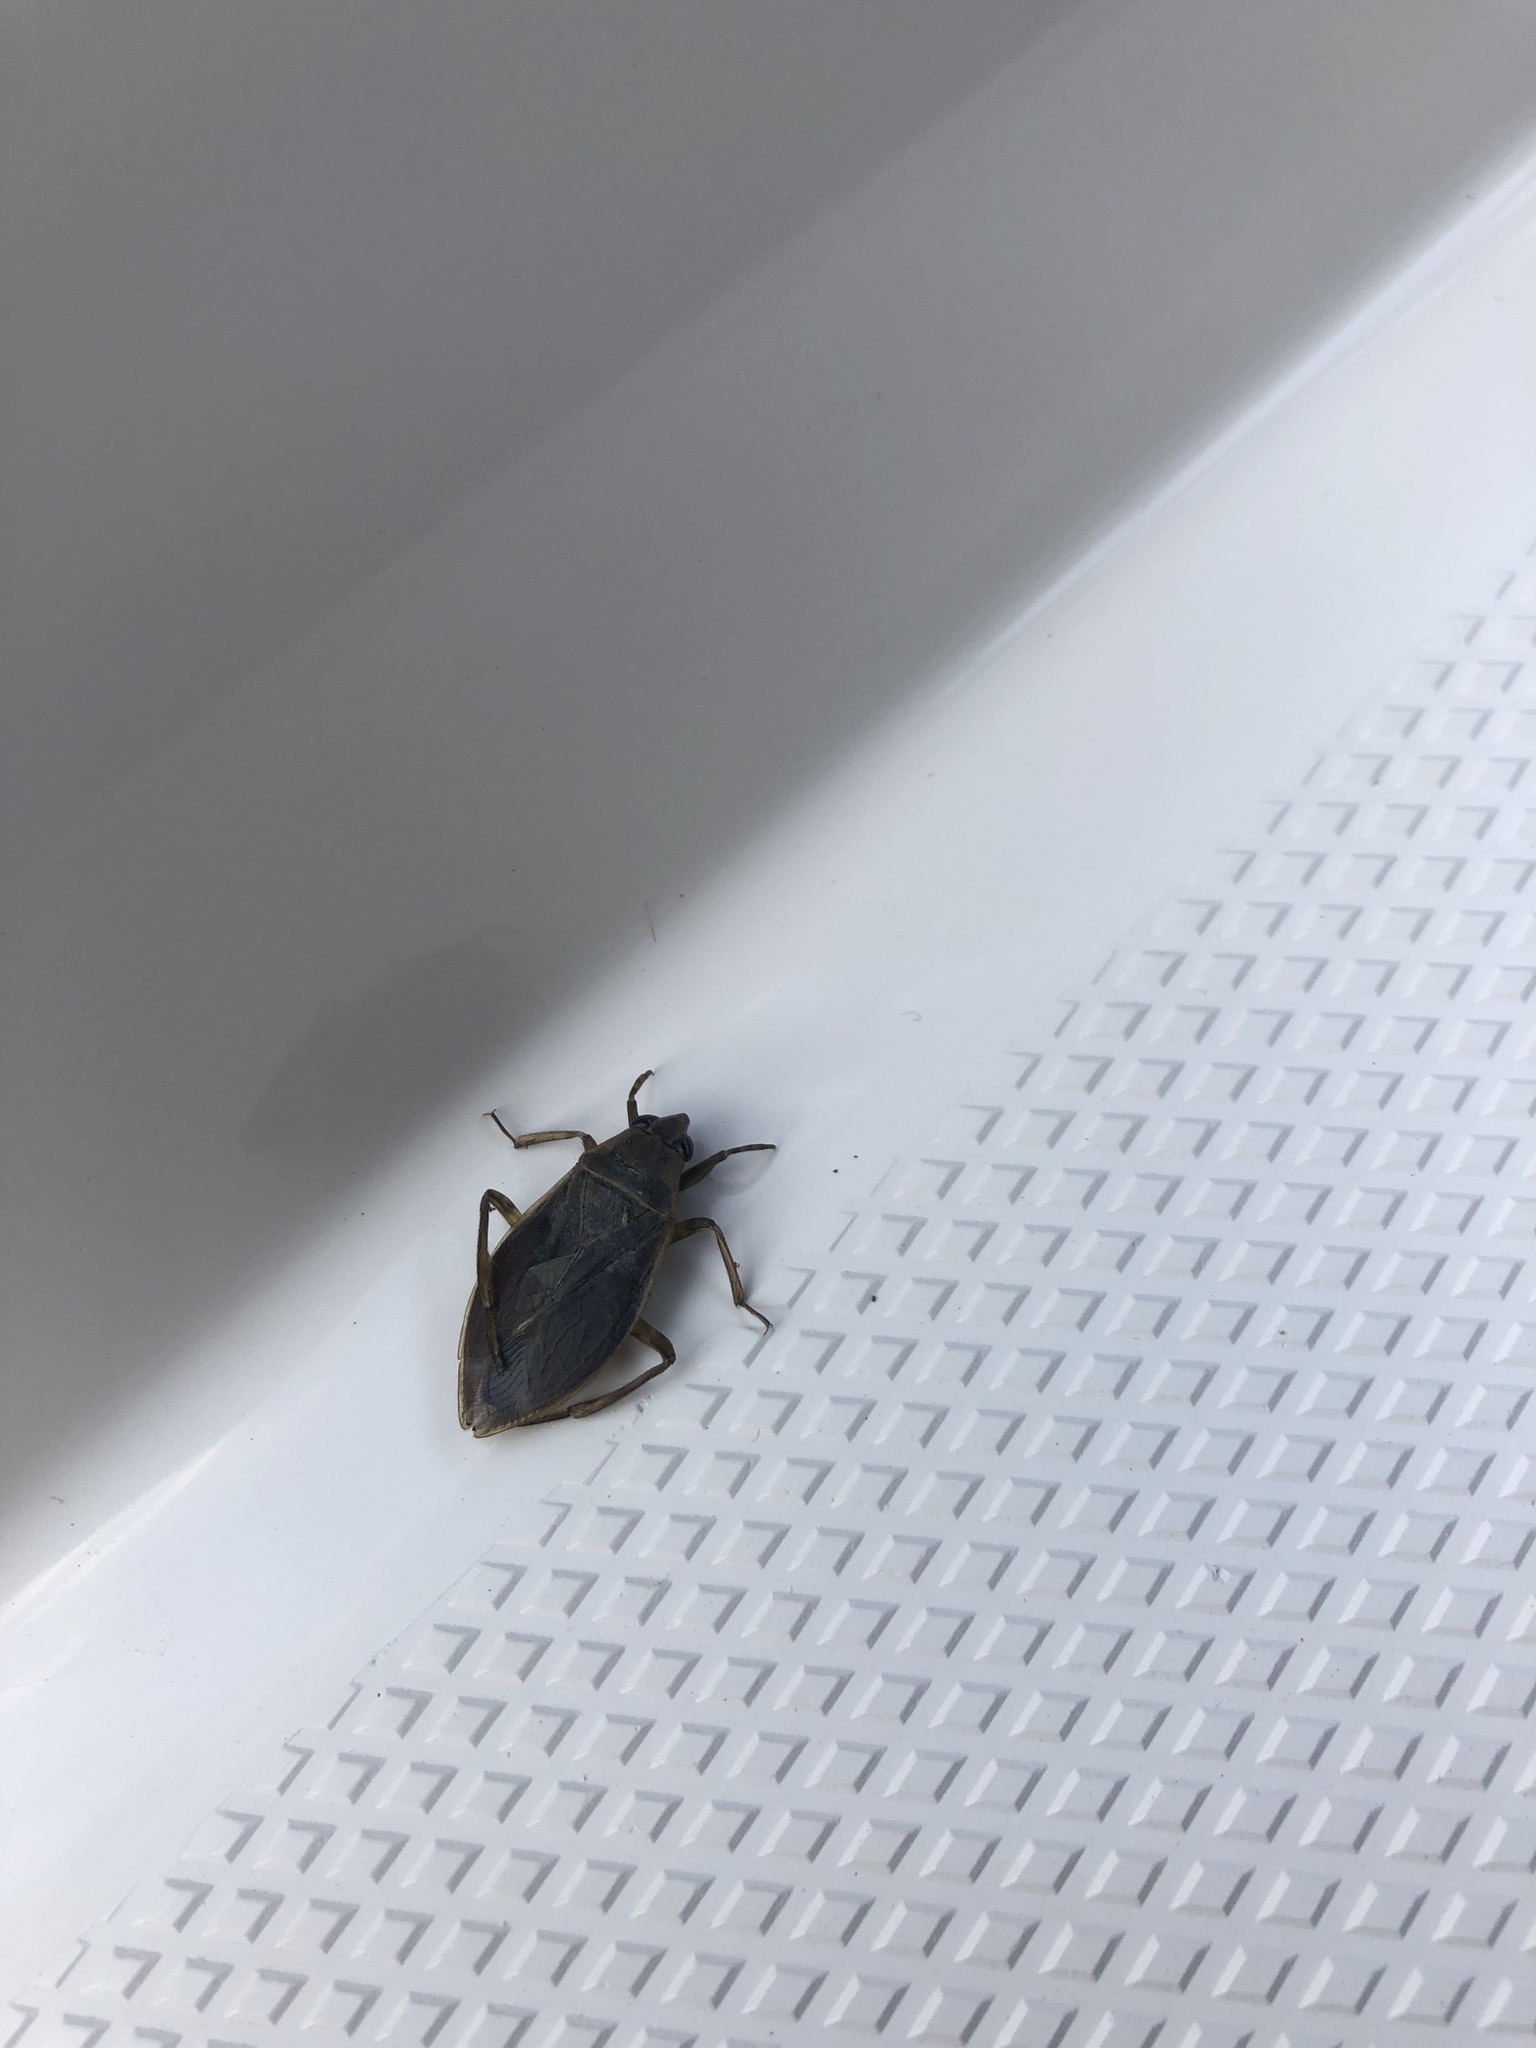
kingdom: Animalia
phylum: Arthropoda
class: Insecta
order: Hemiptera
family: Belostomatidae
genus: Belostoma
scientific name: Belostoma flumineum
